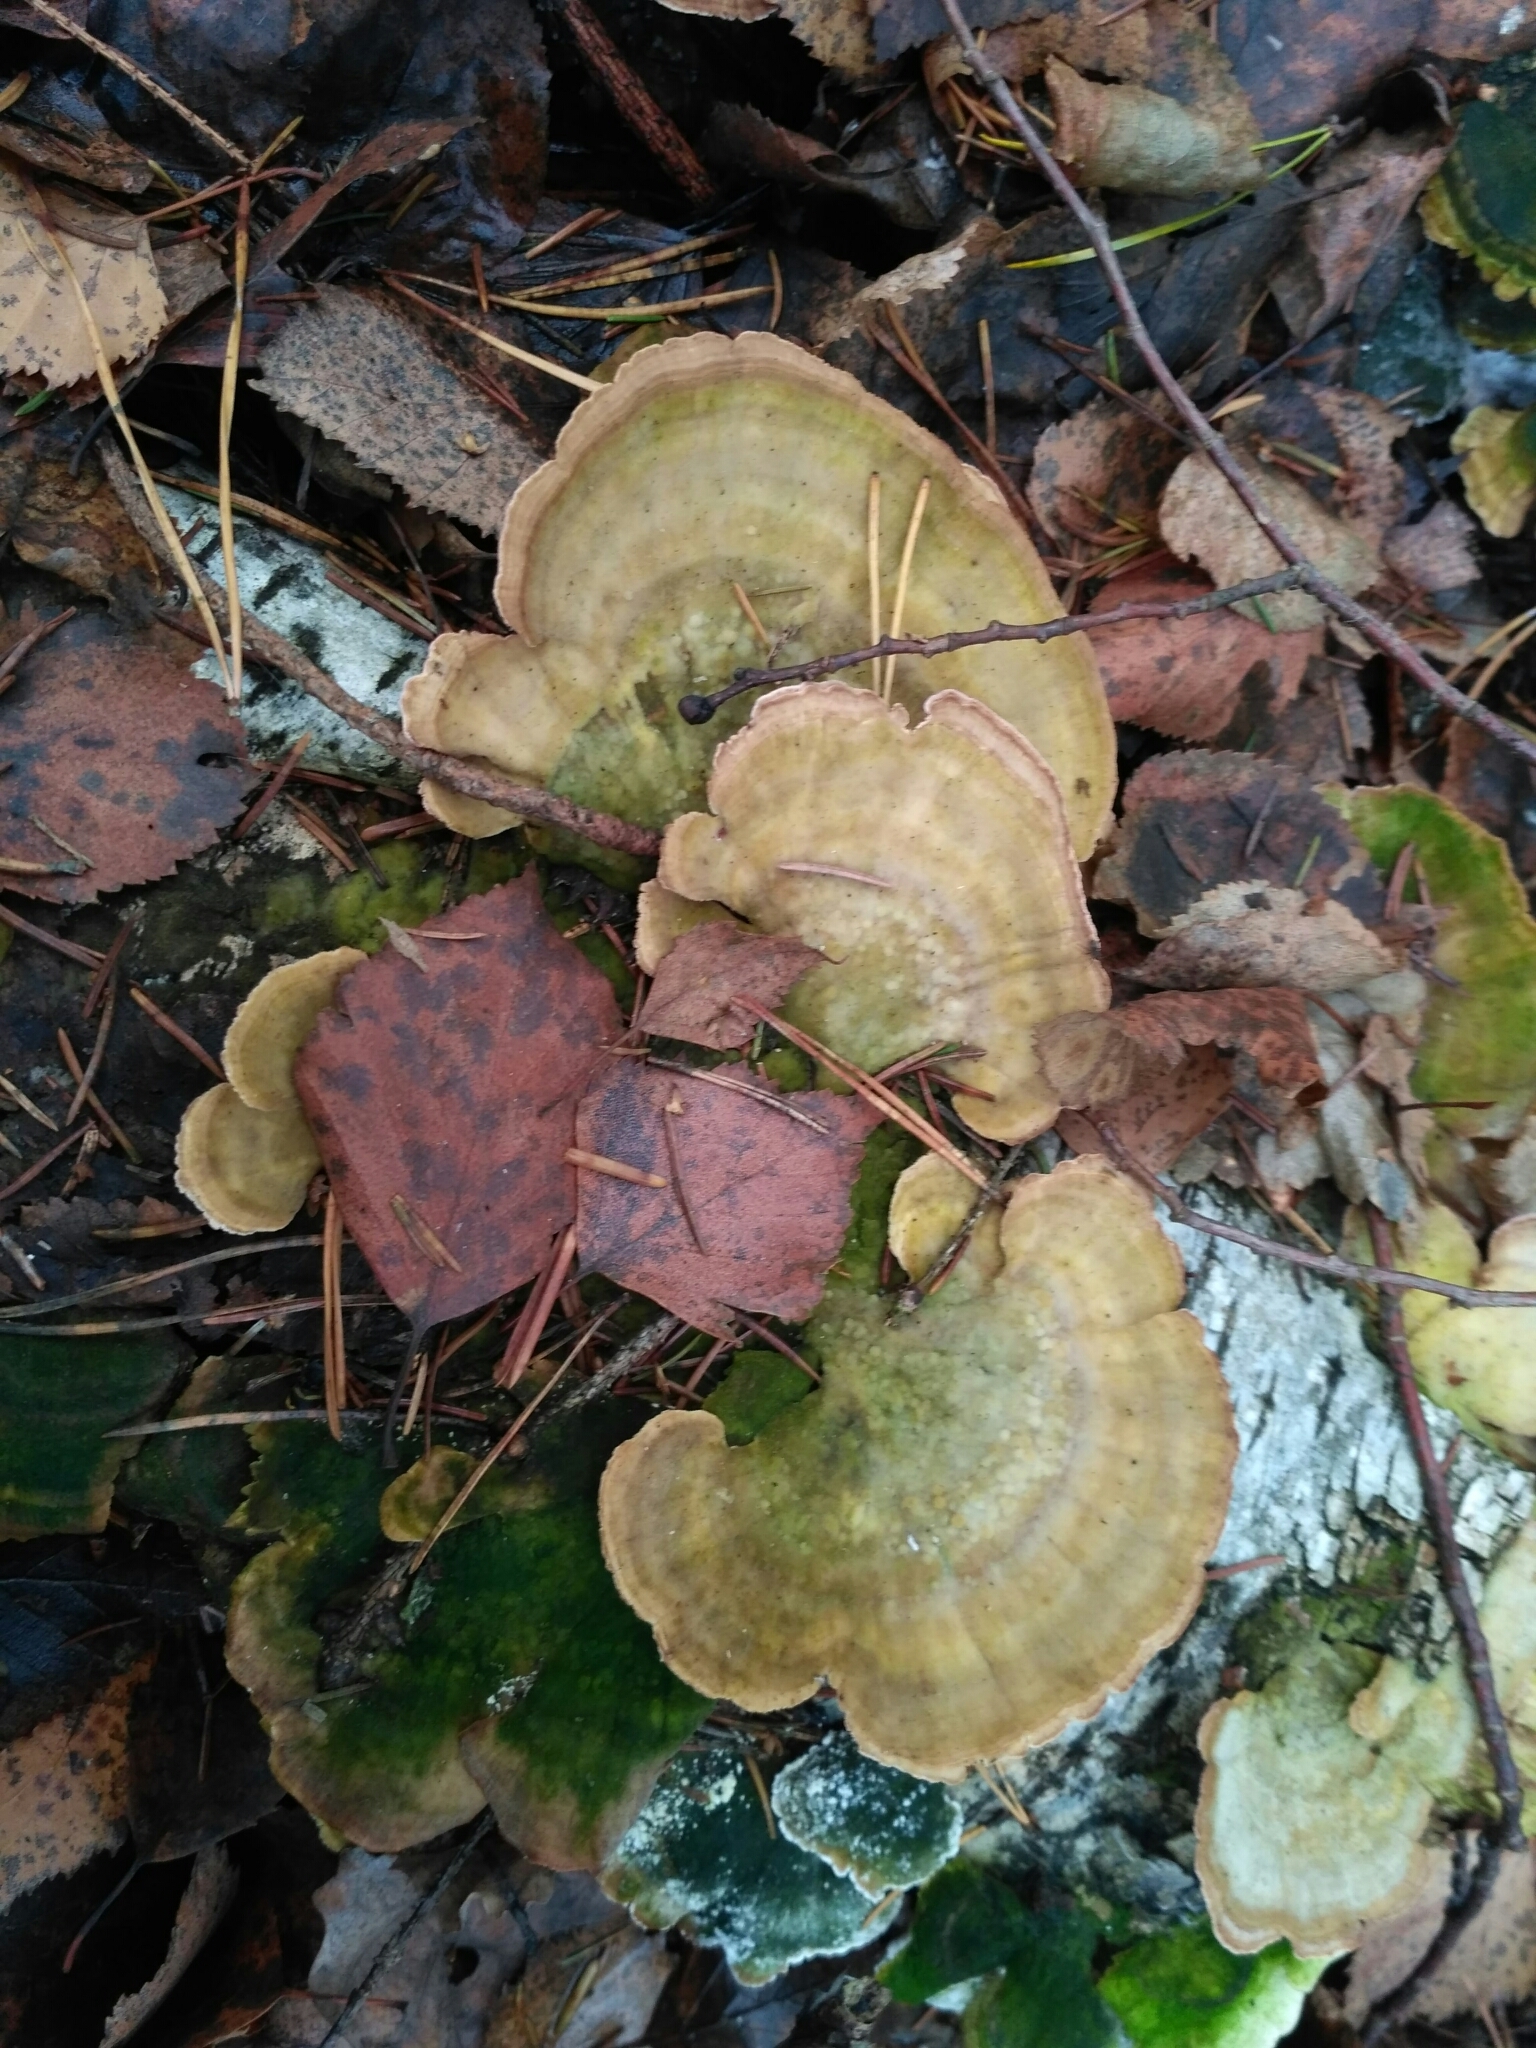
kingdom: Fungi
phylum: Basidiomycota
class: Agaricomycetes
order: Hymenochaetales
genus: Trichaptum
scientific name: Trichaptum biforme
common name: Violet-toothed polypore
